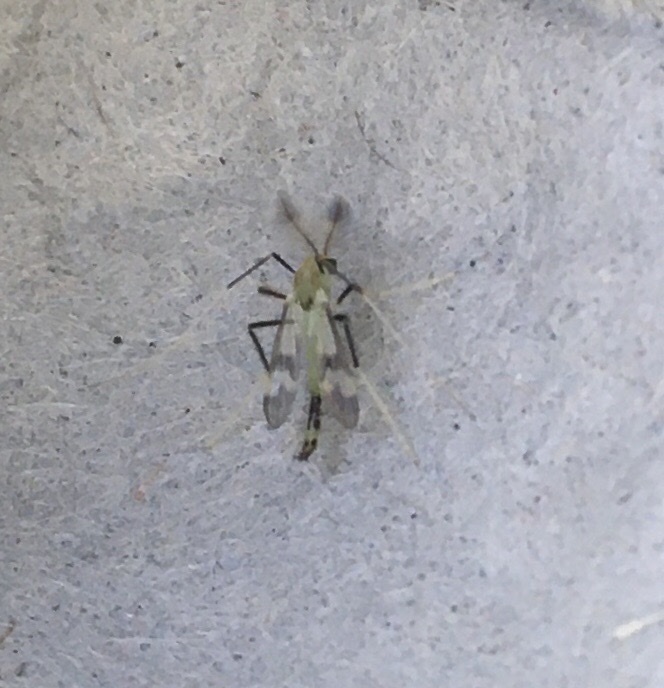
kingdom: Animalia
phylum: Arthropoda
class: Insecta
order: Diptera
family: Chironomidae
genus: Stenochironomus
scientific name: Stenochironomus hilaris
